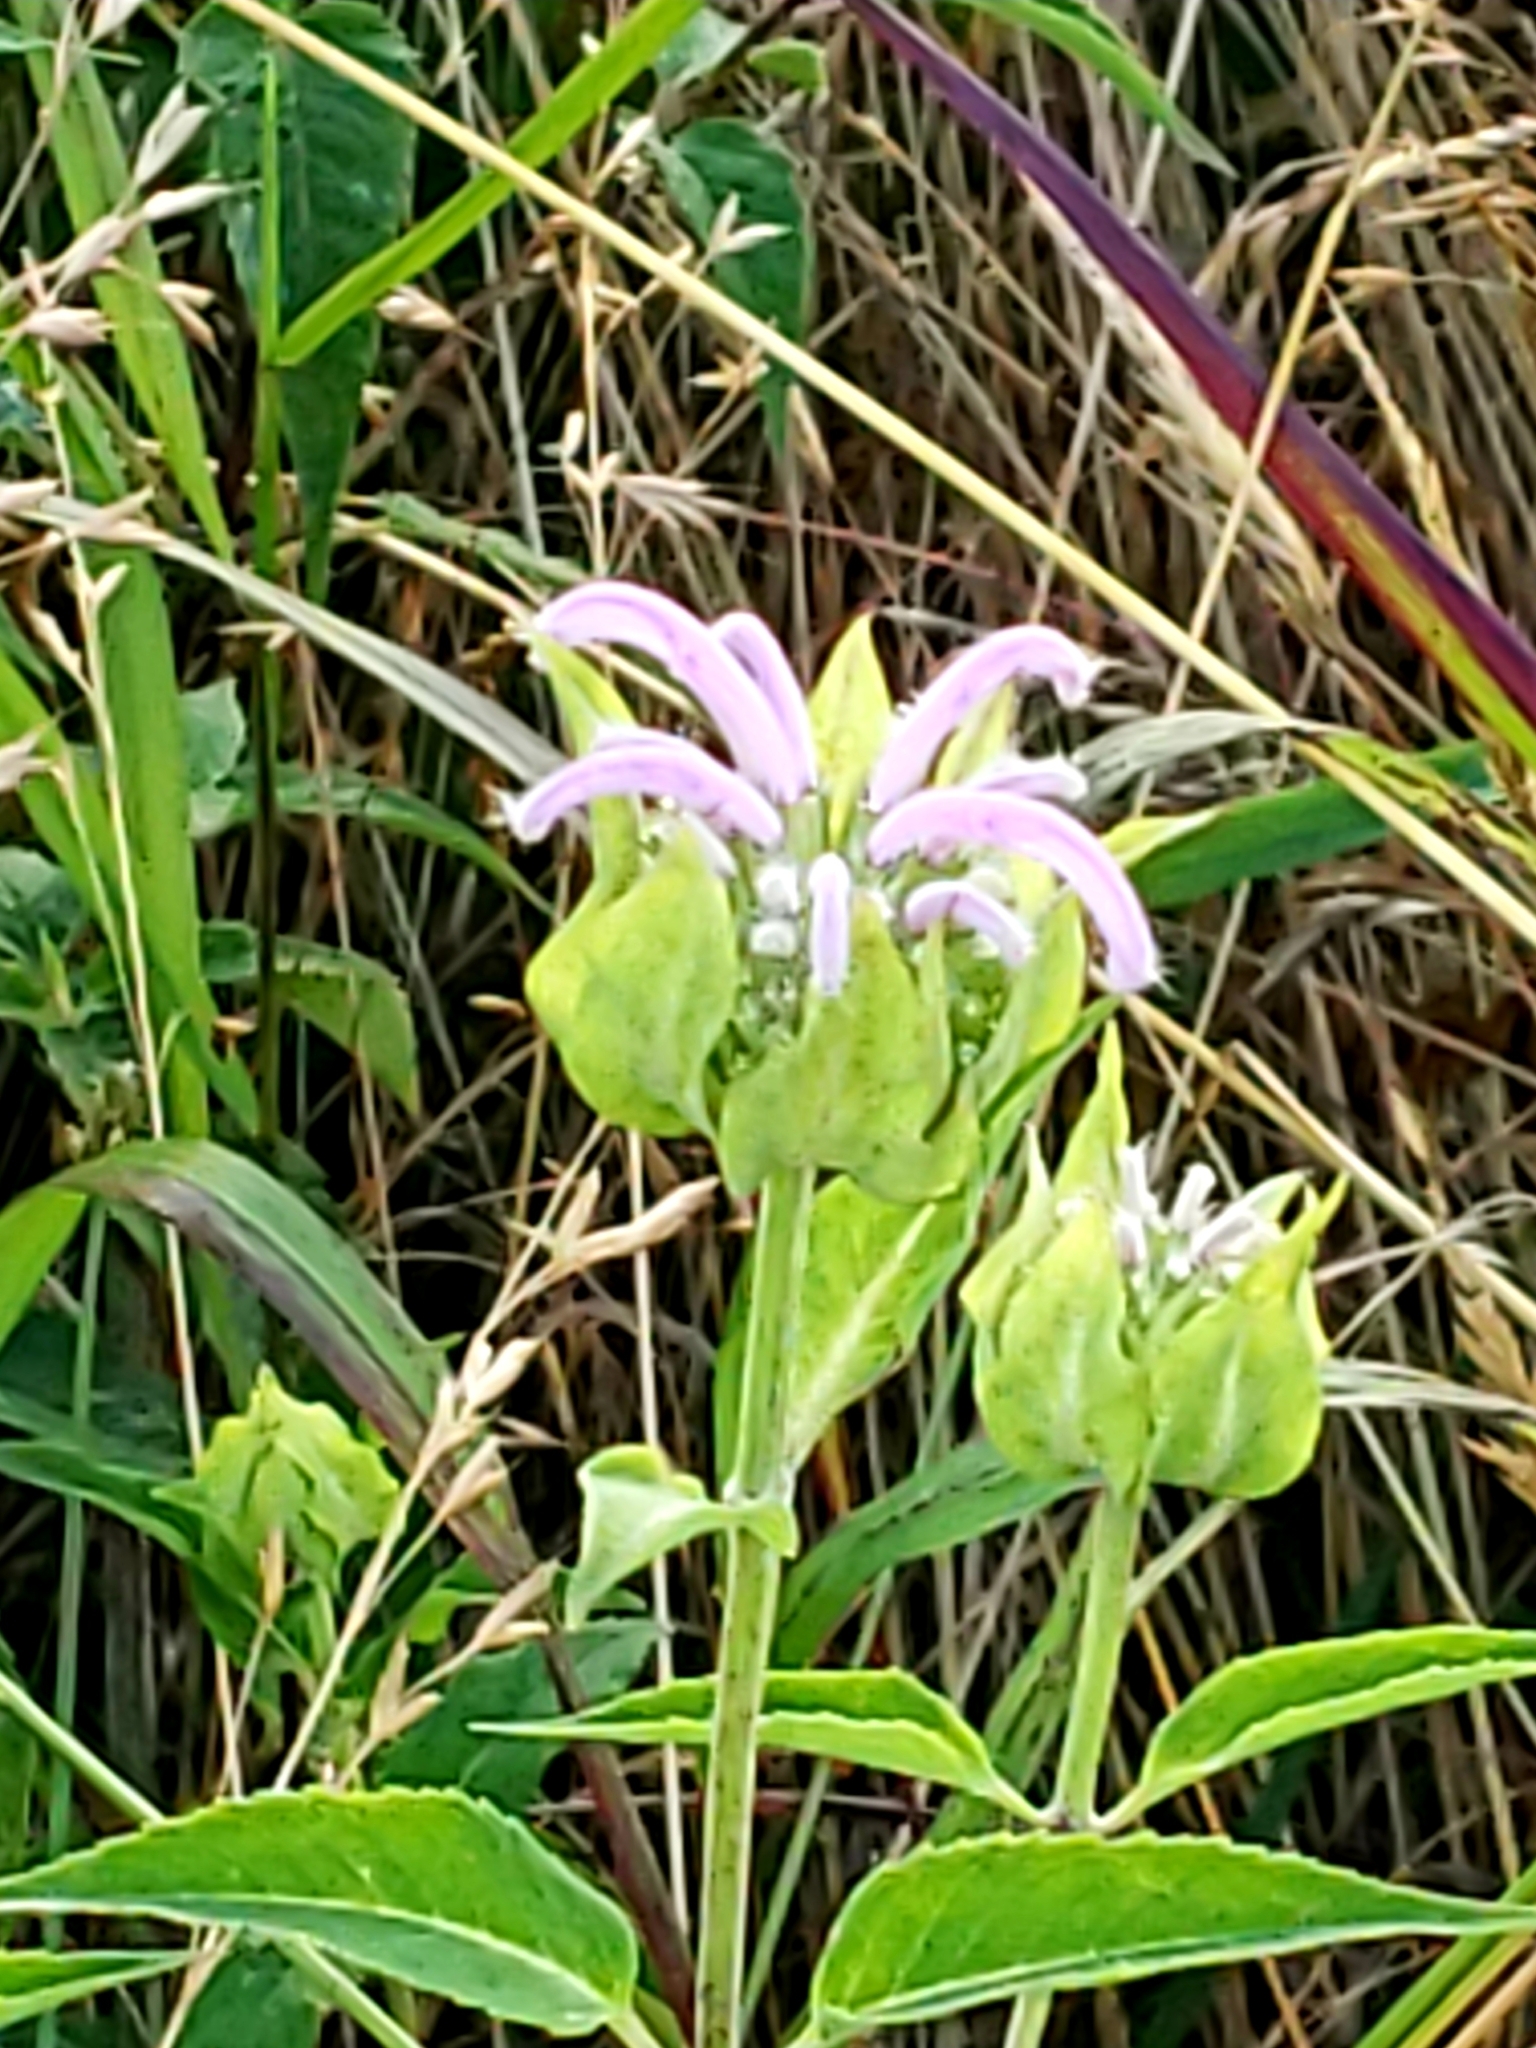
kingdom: Plantae
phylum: Tracheophyta
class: Magnoliopsida
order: Lamiales
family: Lamiaceae
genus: Monarda
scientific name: Monarda fistulosa
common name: Purple beebalm
